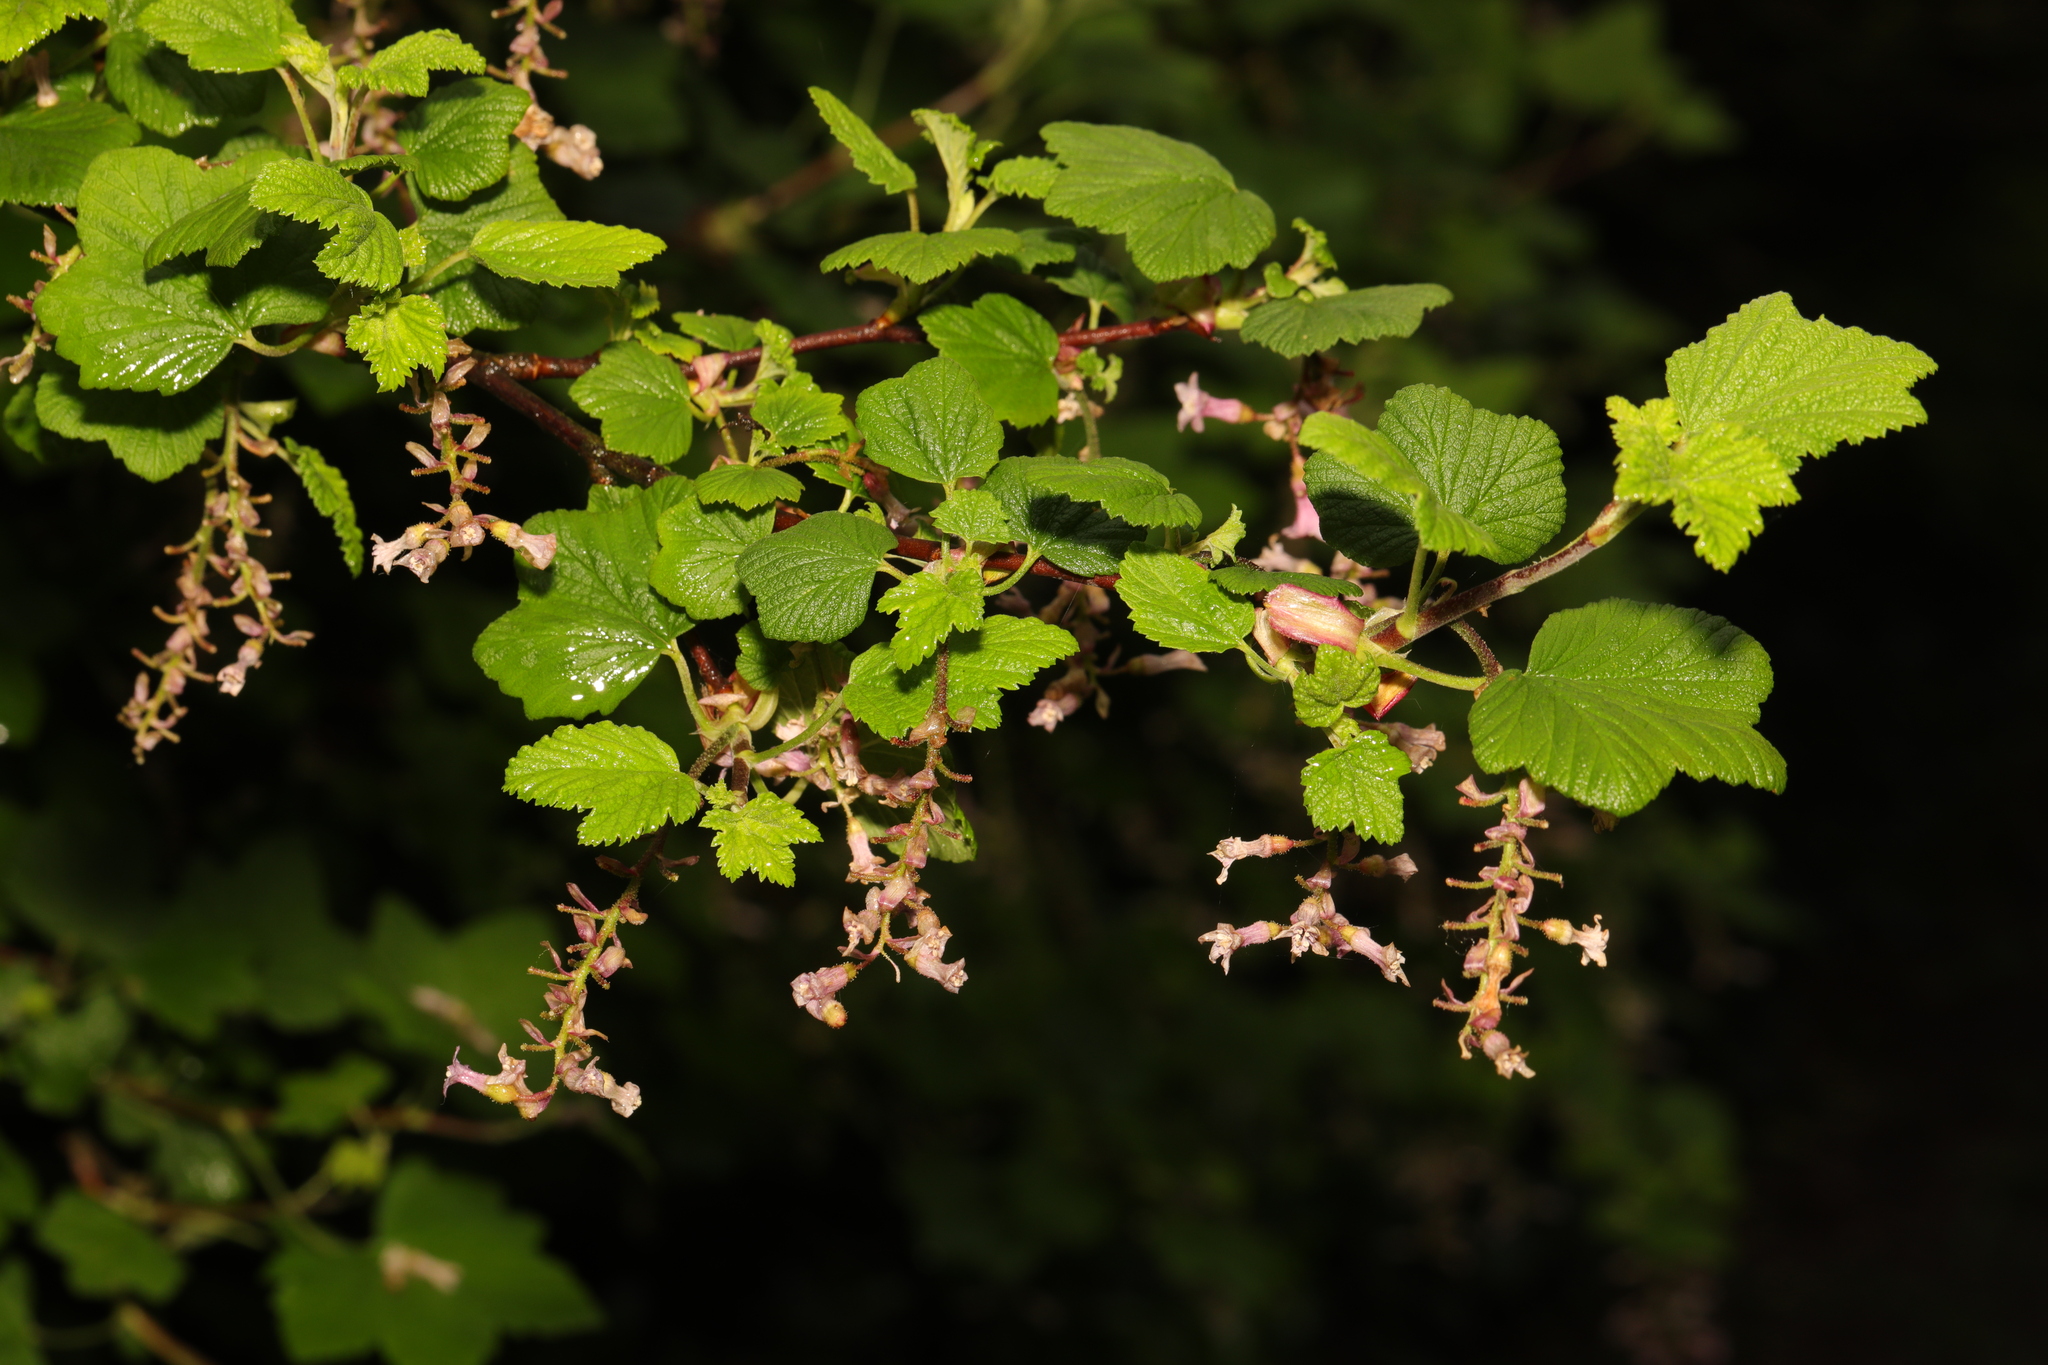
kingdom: Plantae
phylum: Tracheophyta
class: Magnoliopsida
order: Saxifragales
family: Grossulariaceae
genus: Ribes
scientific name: Ribes sanguineum
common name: Flowering currant
